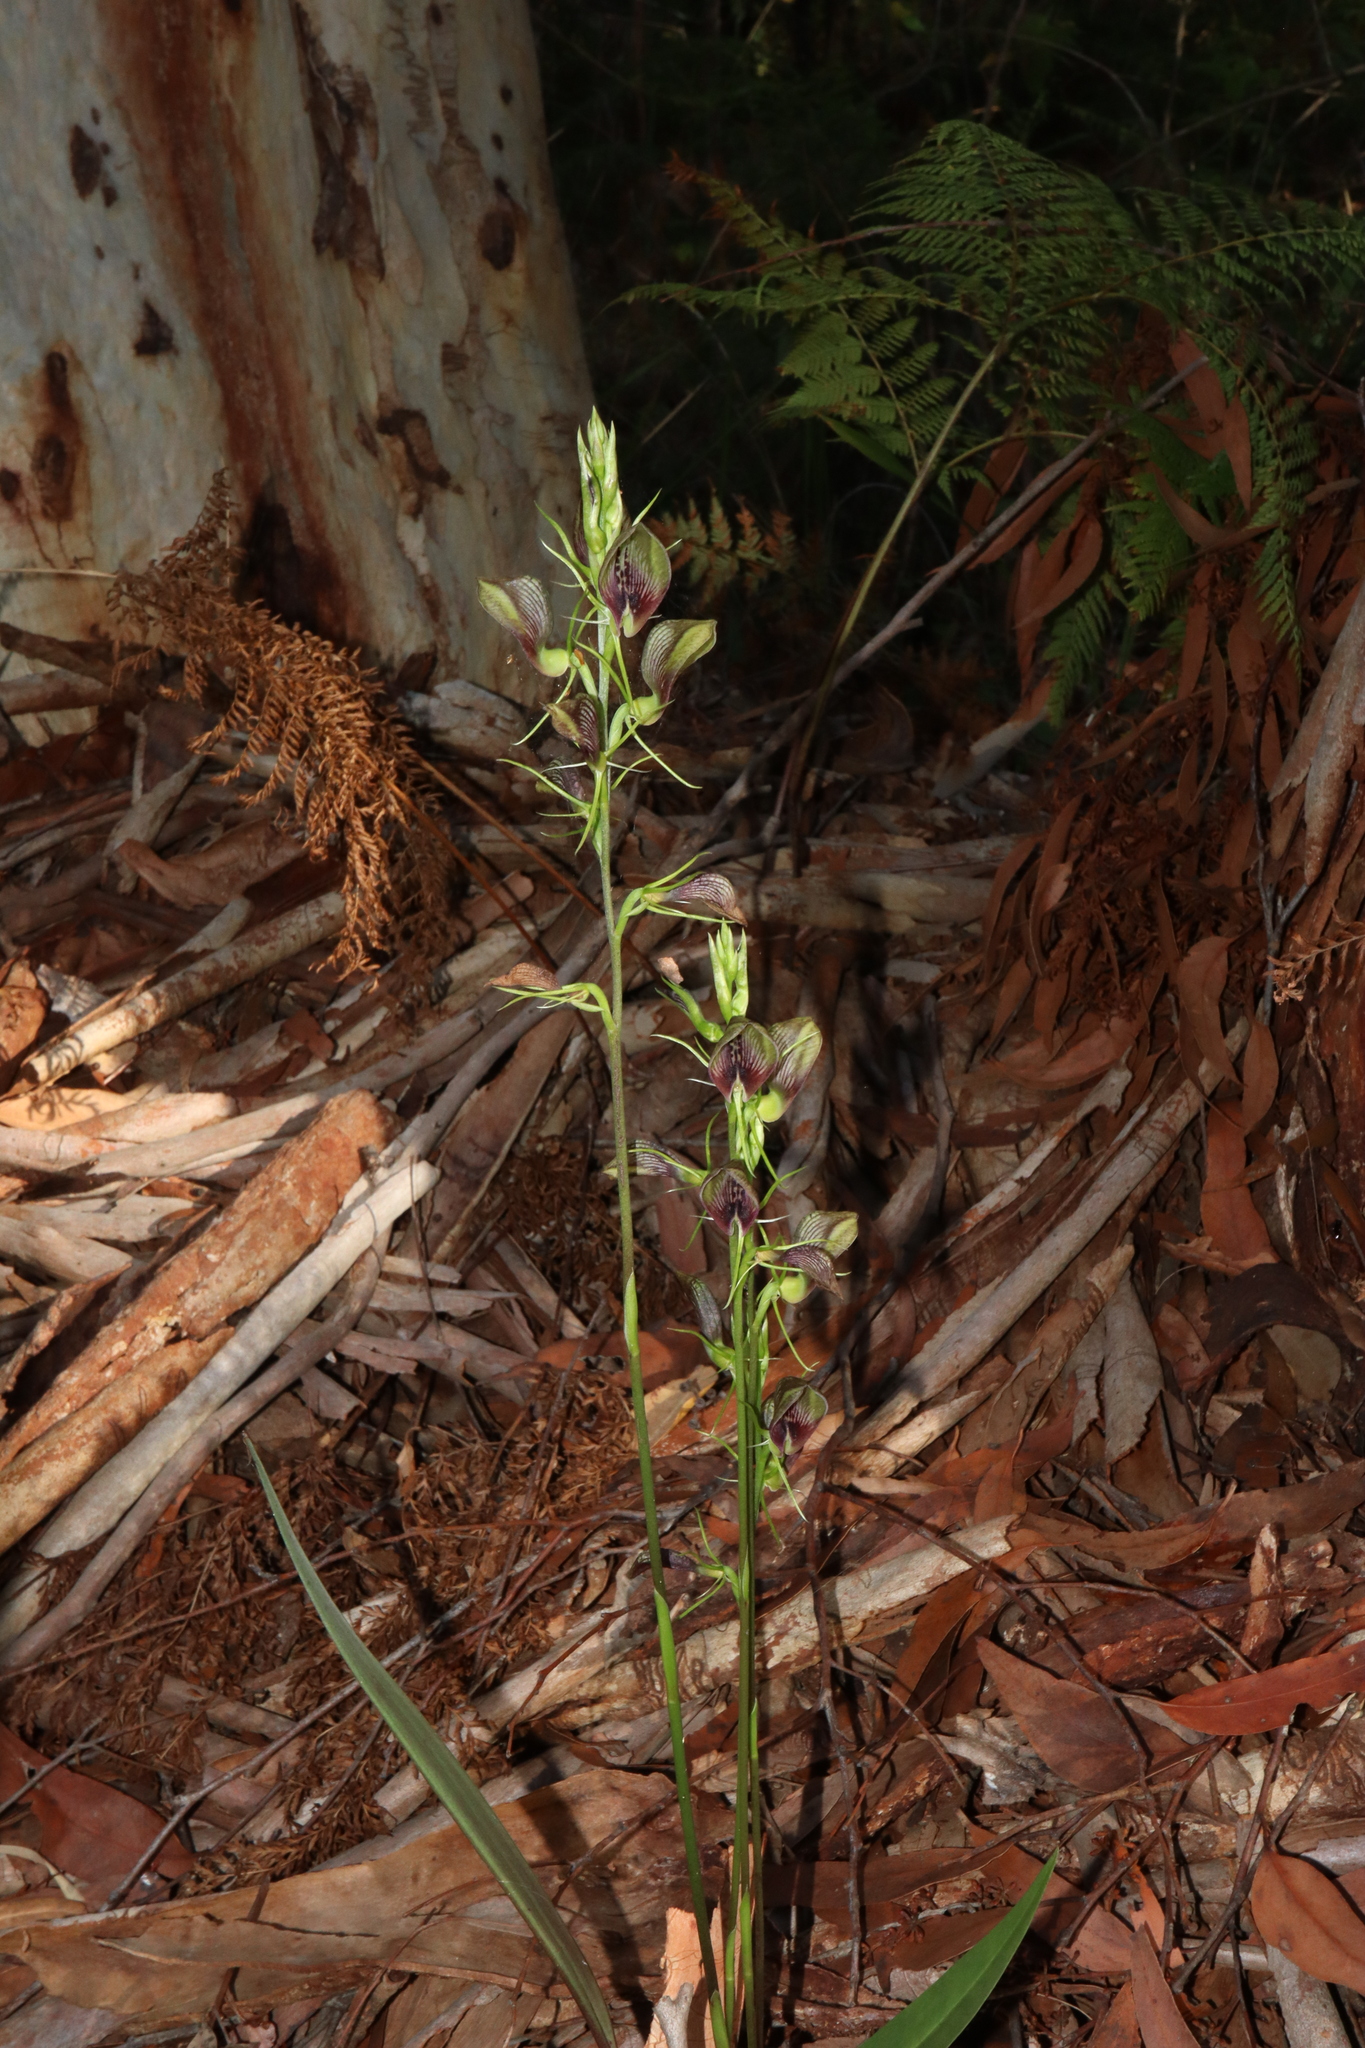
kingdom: Plantae
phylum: Tracheophyta
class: Liliopsida
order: Asparagales
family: Orchidaceae
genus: Cryptostylis
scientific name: Cryptostylis erecta
